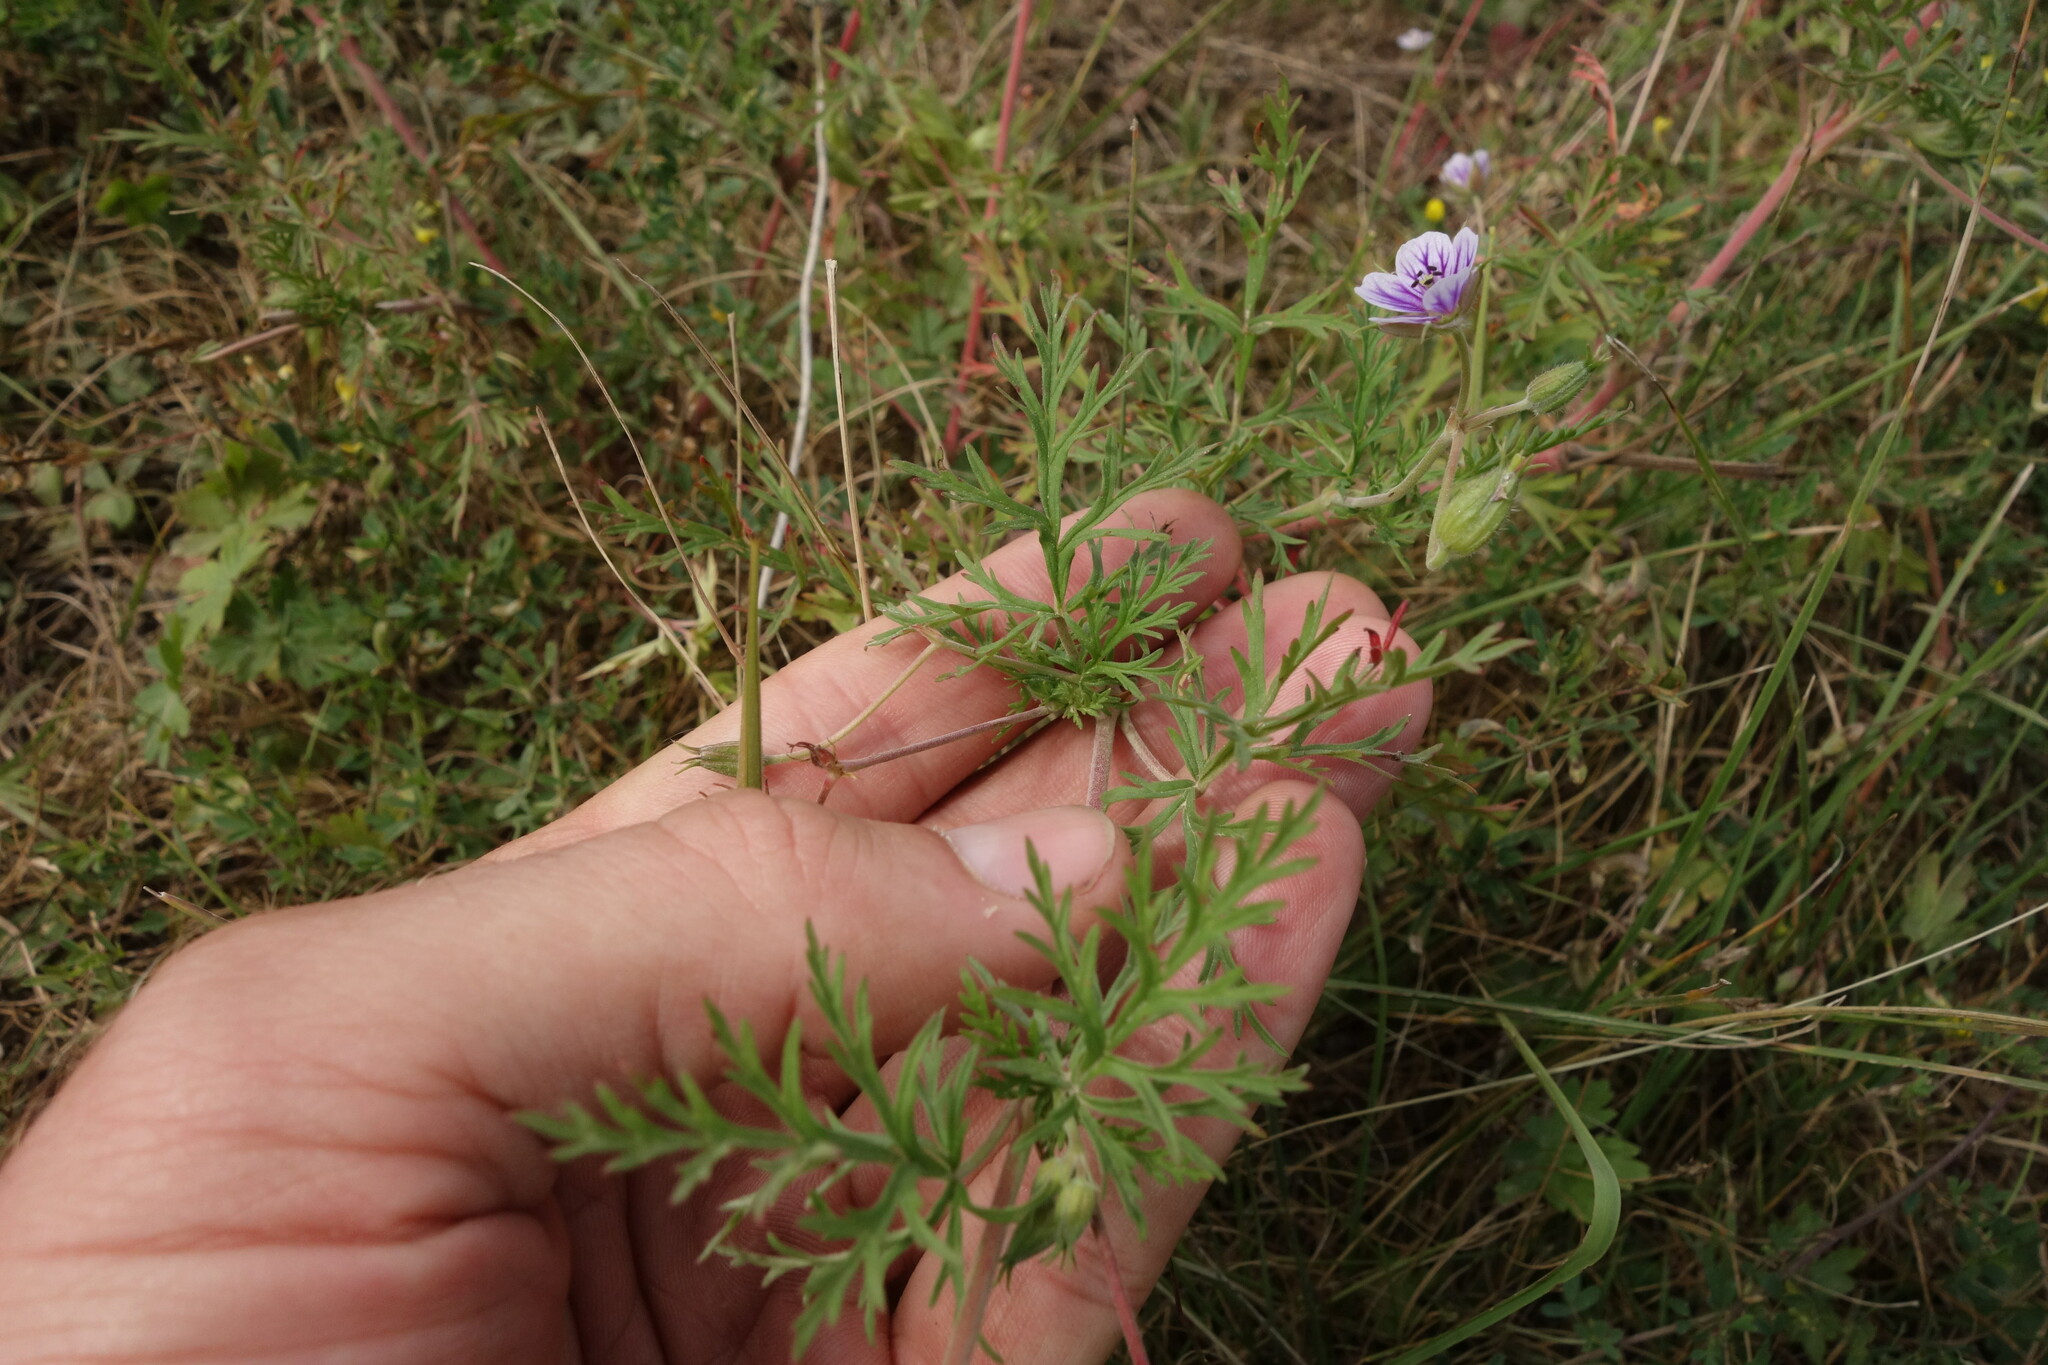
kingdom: Plantae
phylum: Tracheophyta
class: Magnoliopsida
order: Geraniales
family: Geraniaceae
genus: Erodium
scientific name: Erodium stephanianum
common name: Stephen's stork's bill
